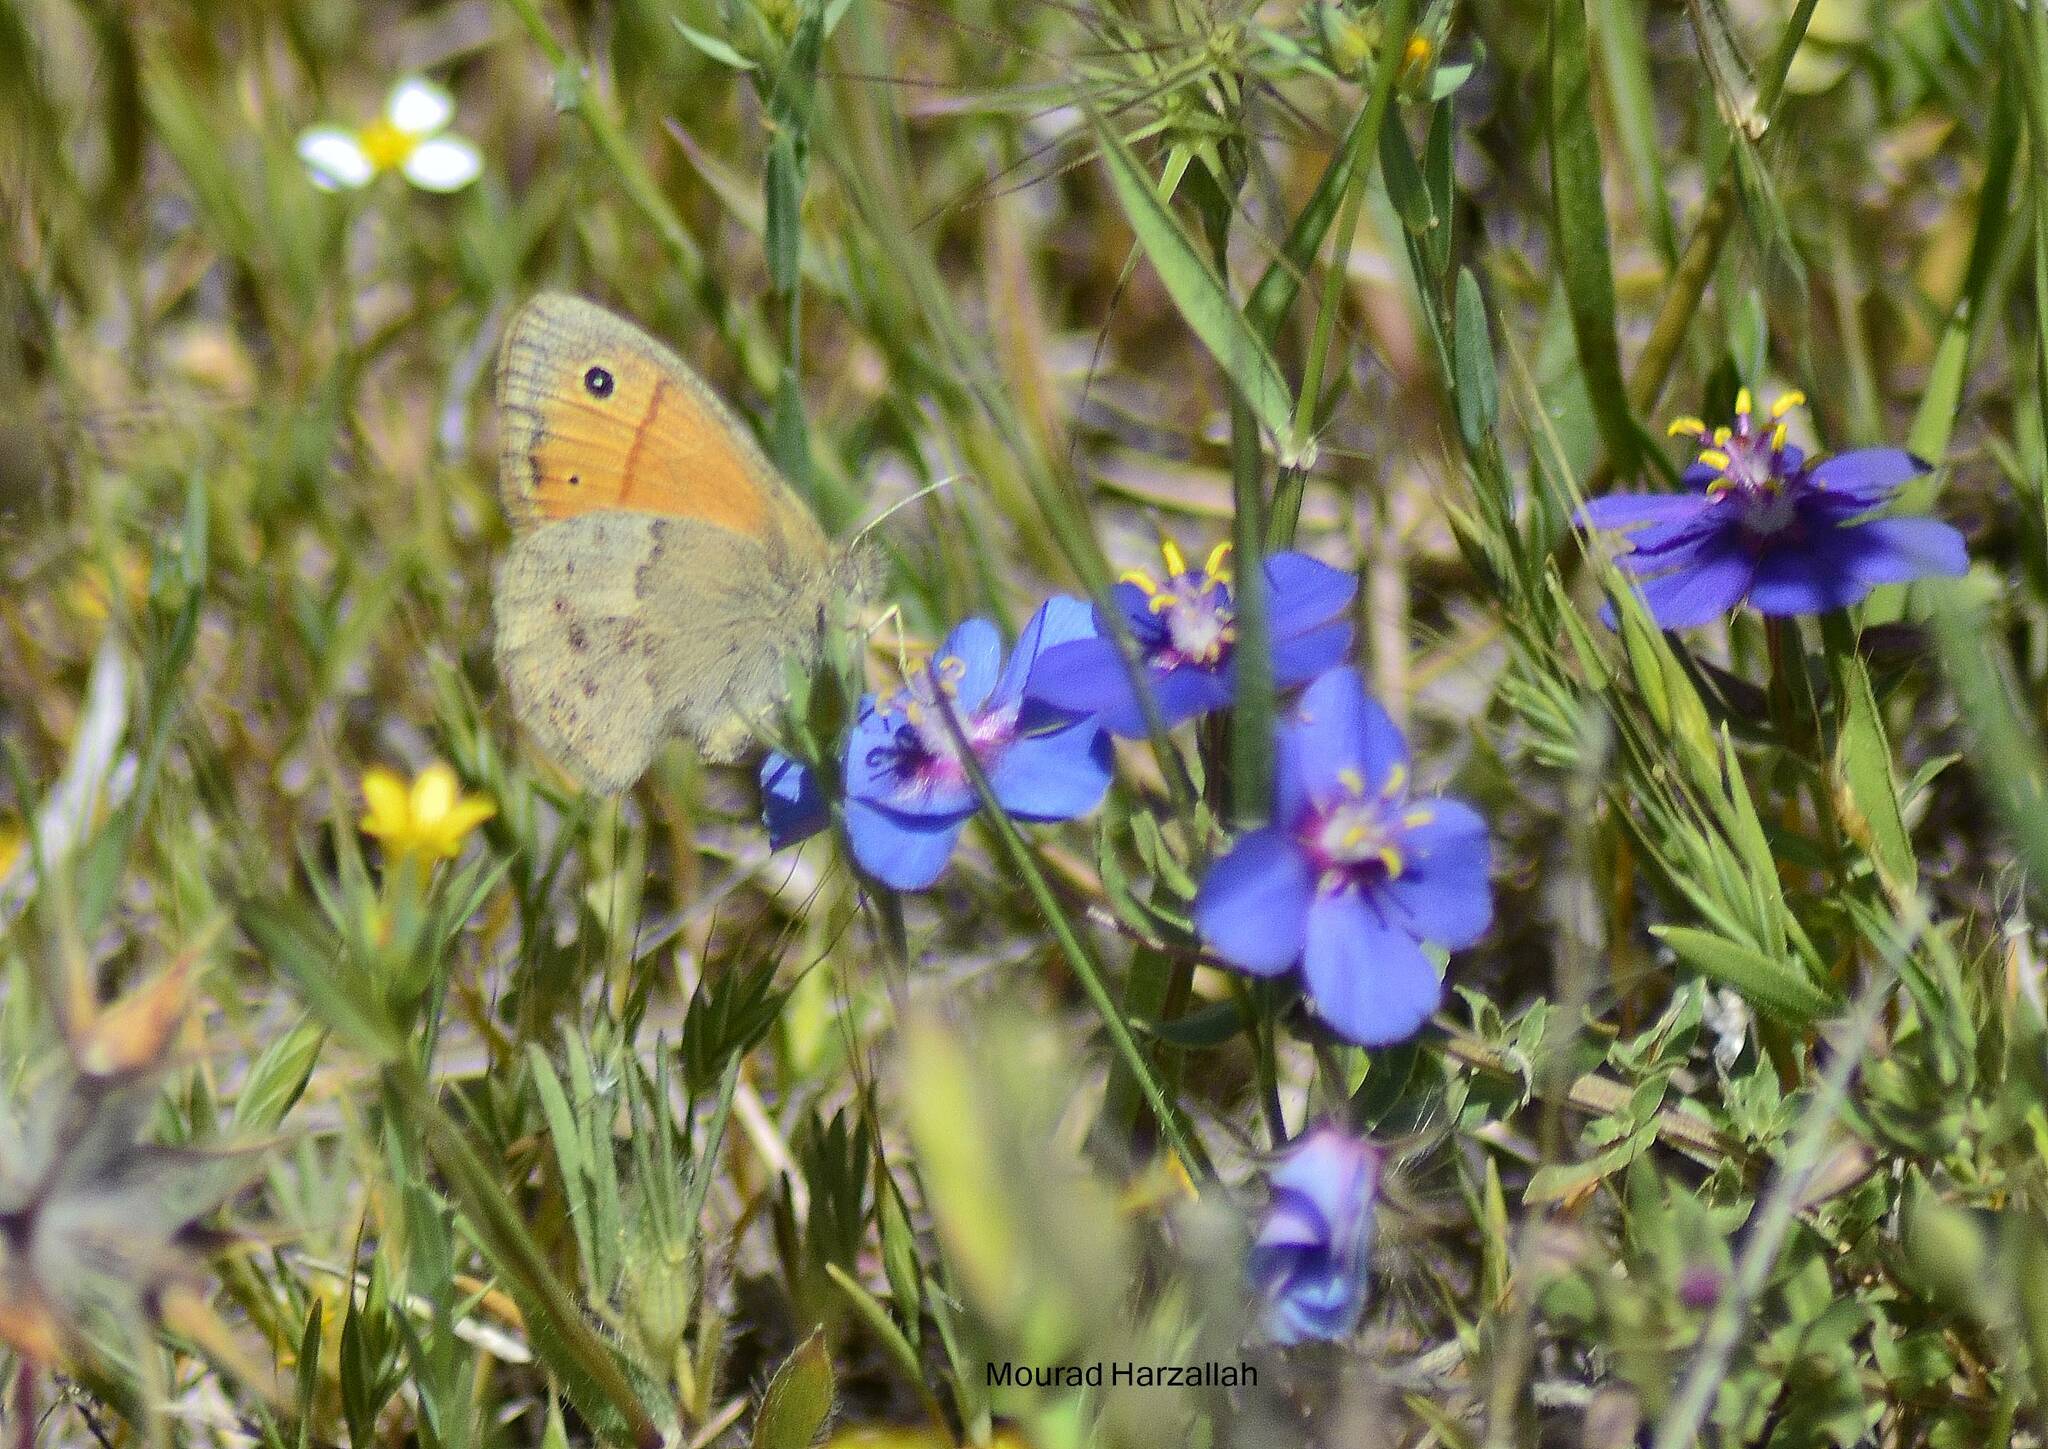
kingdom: Animalia
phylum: Arthropoda
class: Insecta
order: Lepidoptera
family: Nymphalidae
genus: Coenonympha
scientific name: Coenonympha pamphilus
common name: Small heath
